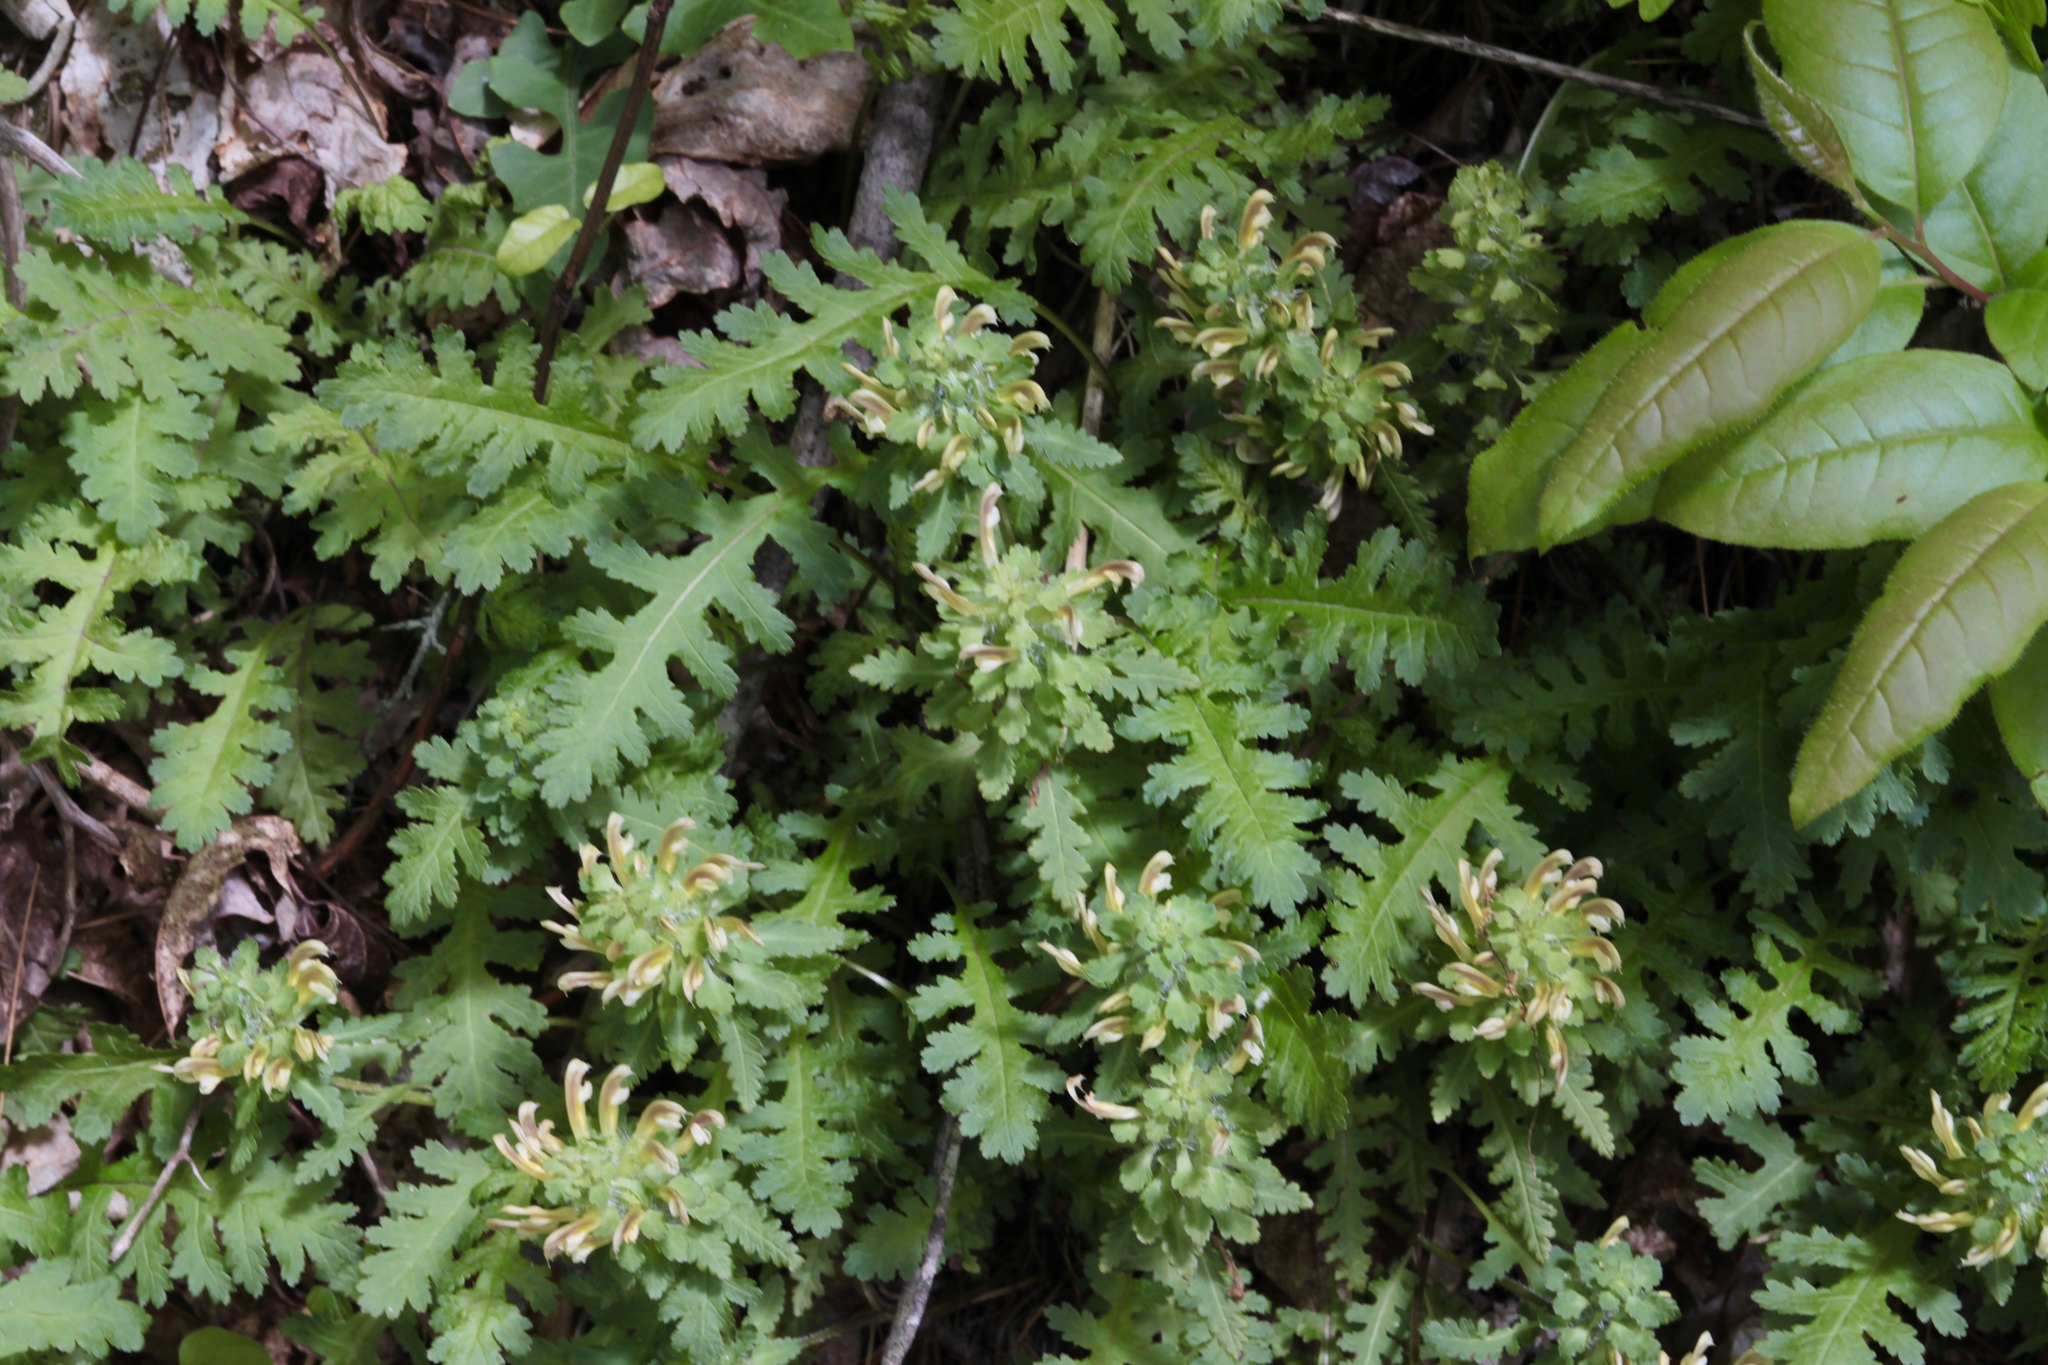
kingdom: Plantae
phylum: Tracheophyta
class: Magnoliopsida
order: Lamiales
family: Orobanchaceae
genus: Pedicularis
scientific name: Pedicularis canadensis
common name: Early lousewort
